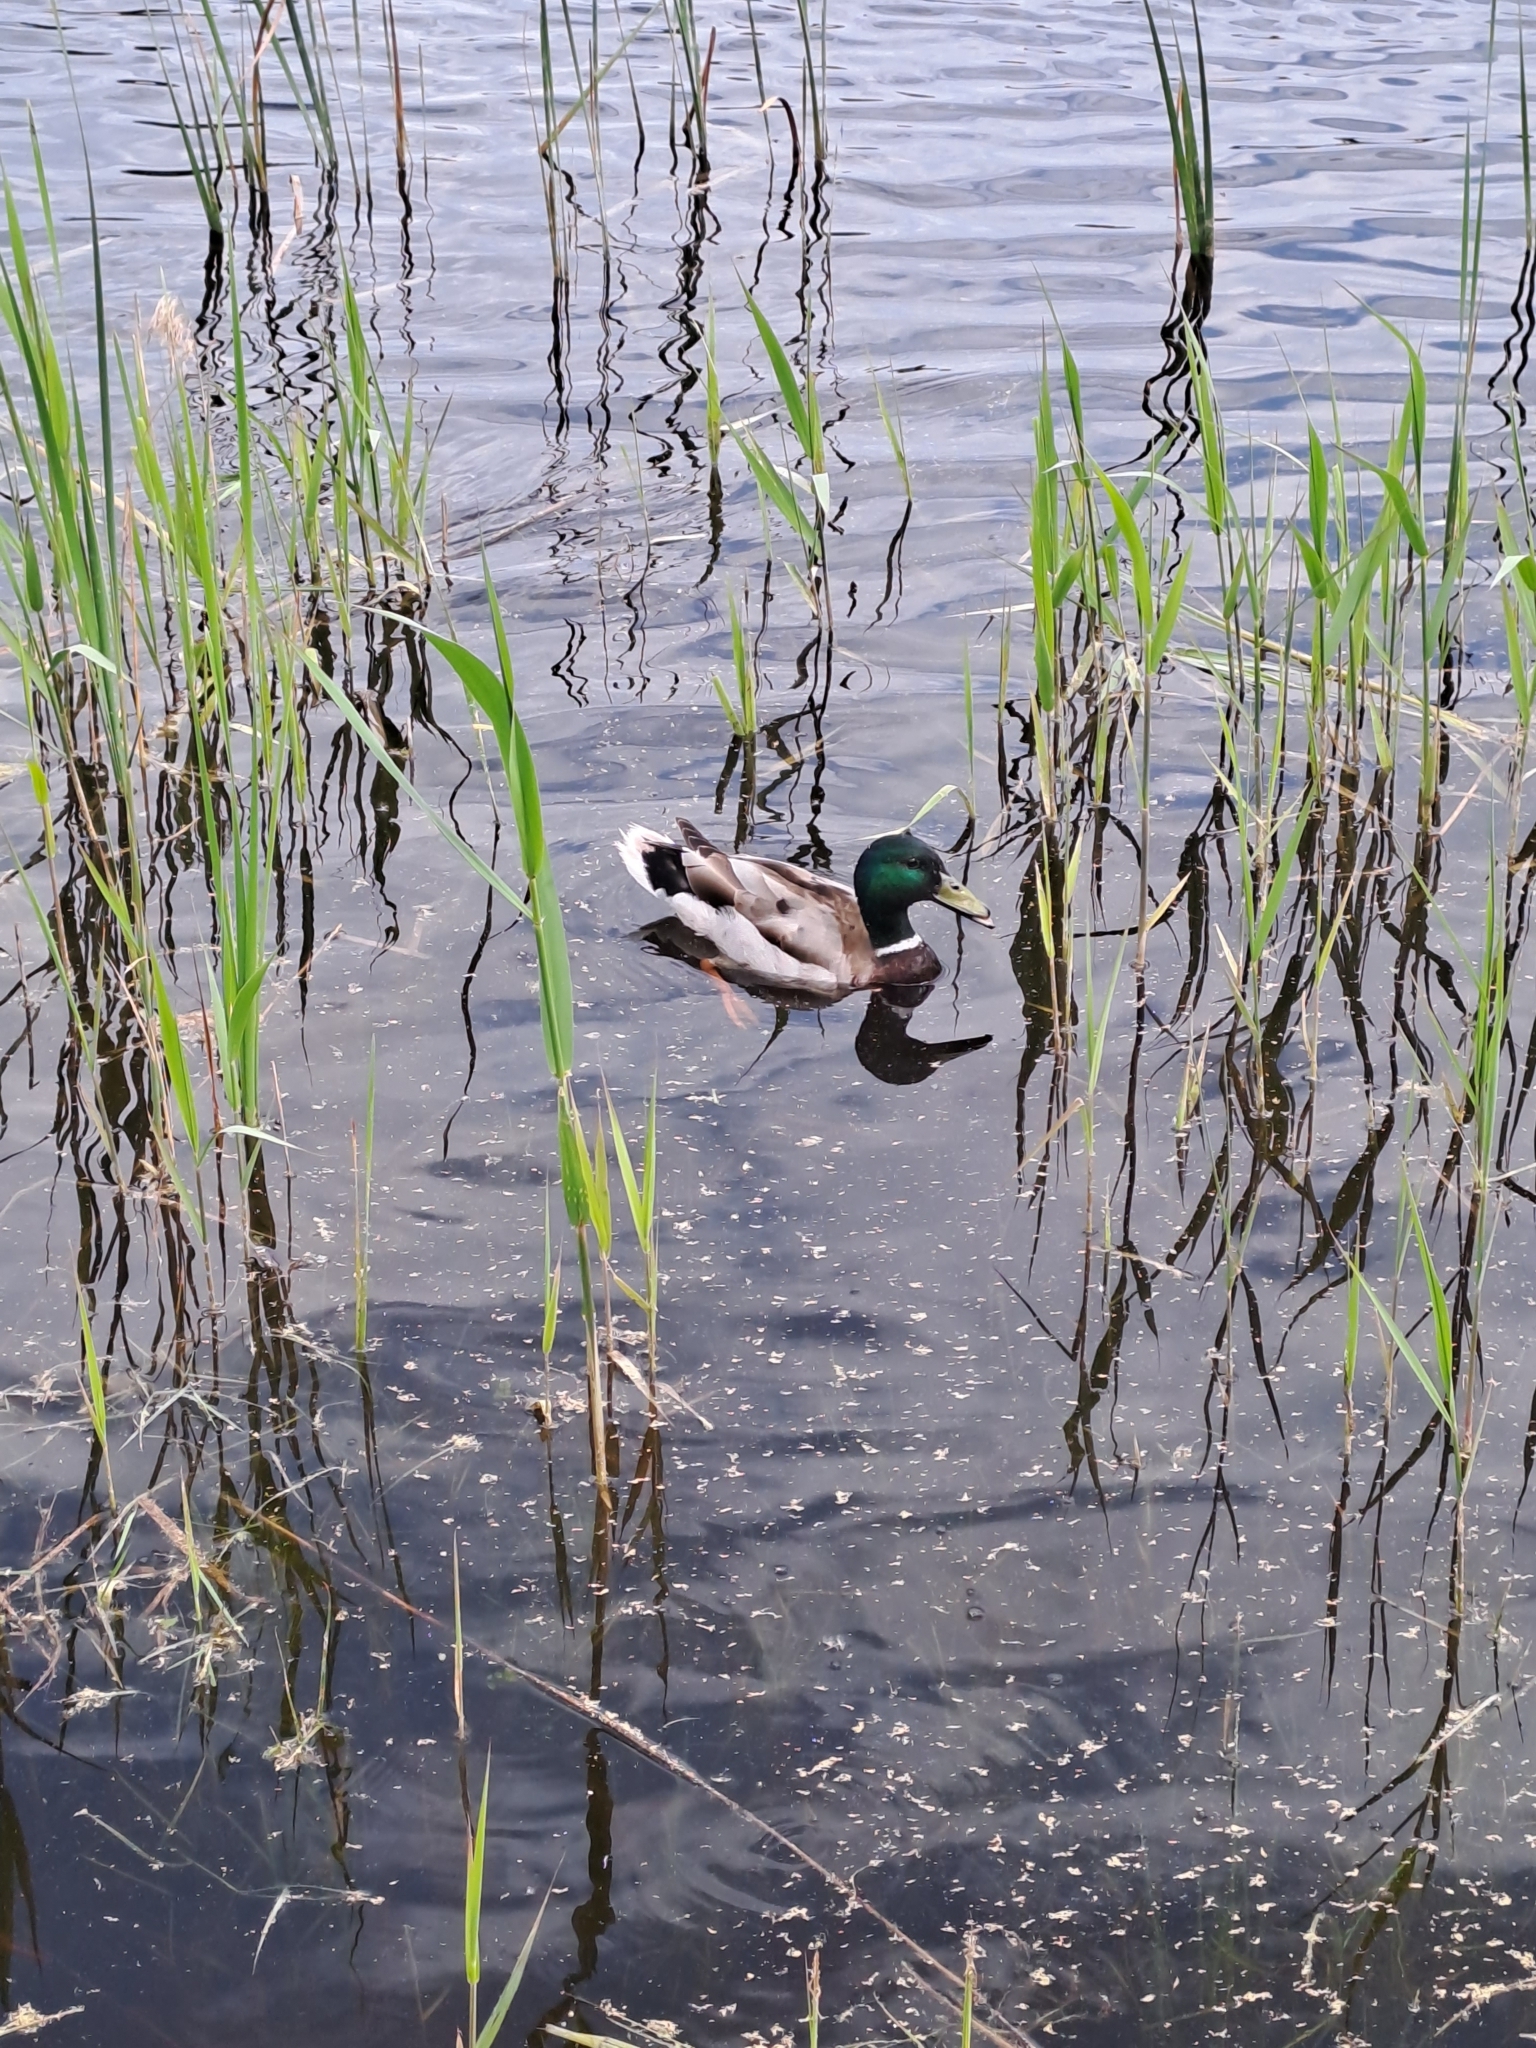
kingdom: Animalia
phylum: Chordata
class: Aves
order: Anseriformes
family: Anatidae
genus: Anas
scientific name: Anas platyrhynchos
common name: Mallard
